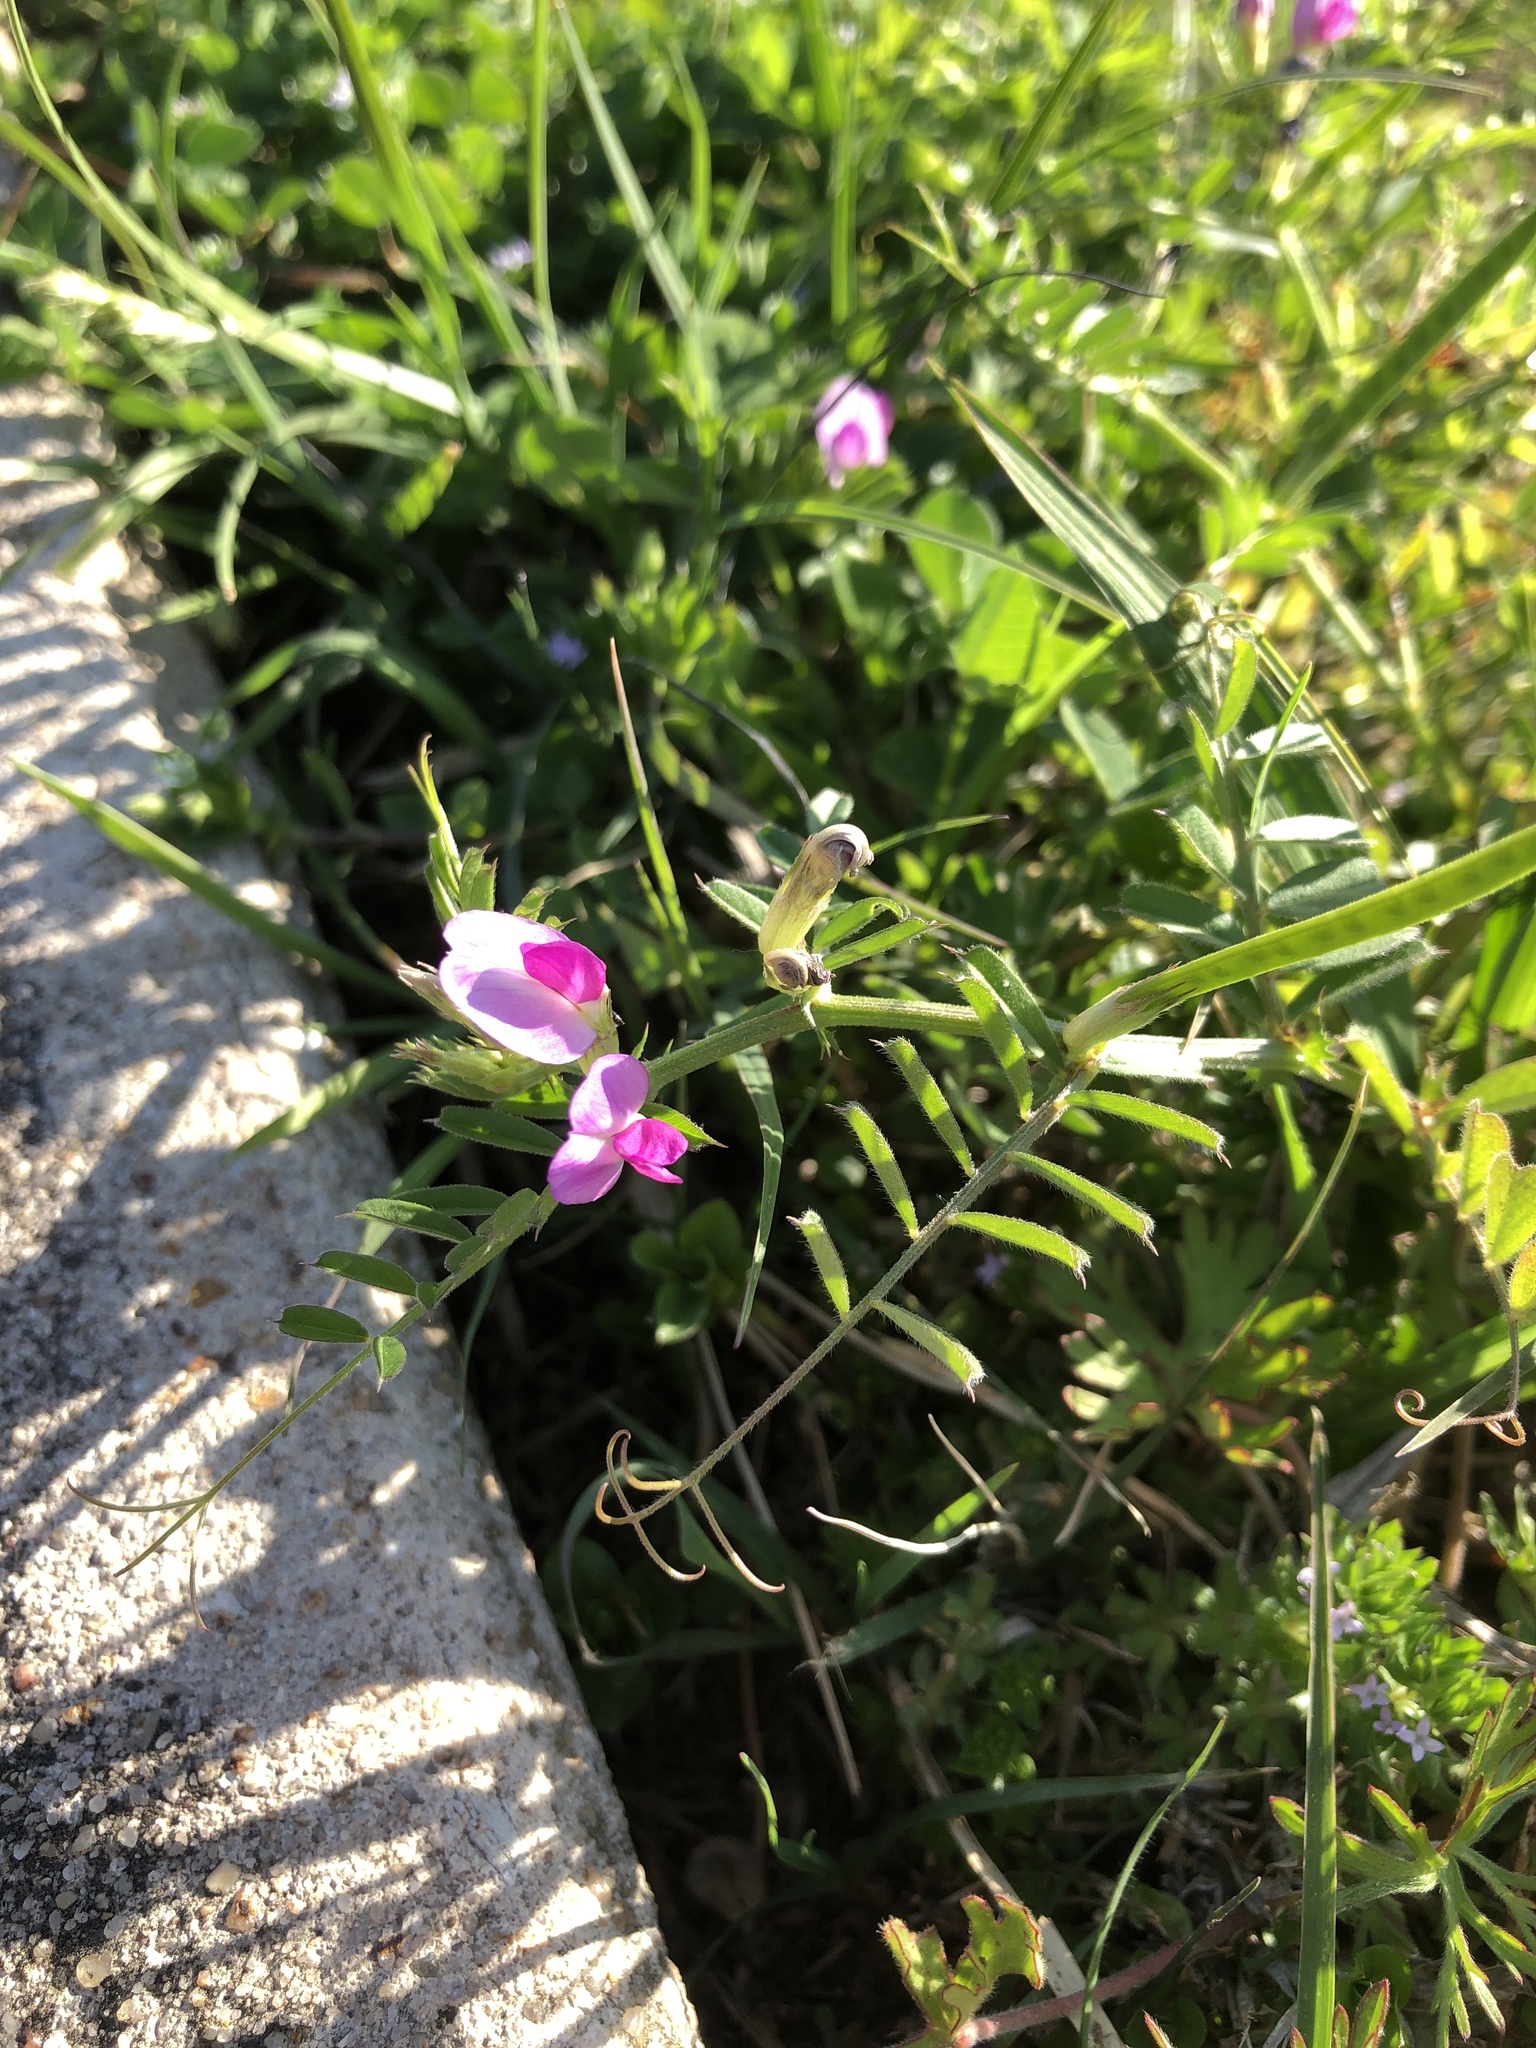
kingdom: Plantae
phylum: Tracheophyta
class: Magnoliopsida
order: Fabales
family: Fabaceae
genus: Vicia
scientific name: Vicia sativa
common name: Garden vetch
